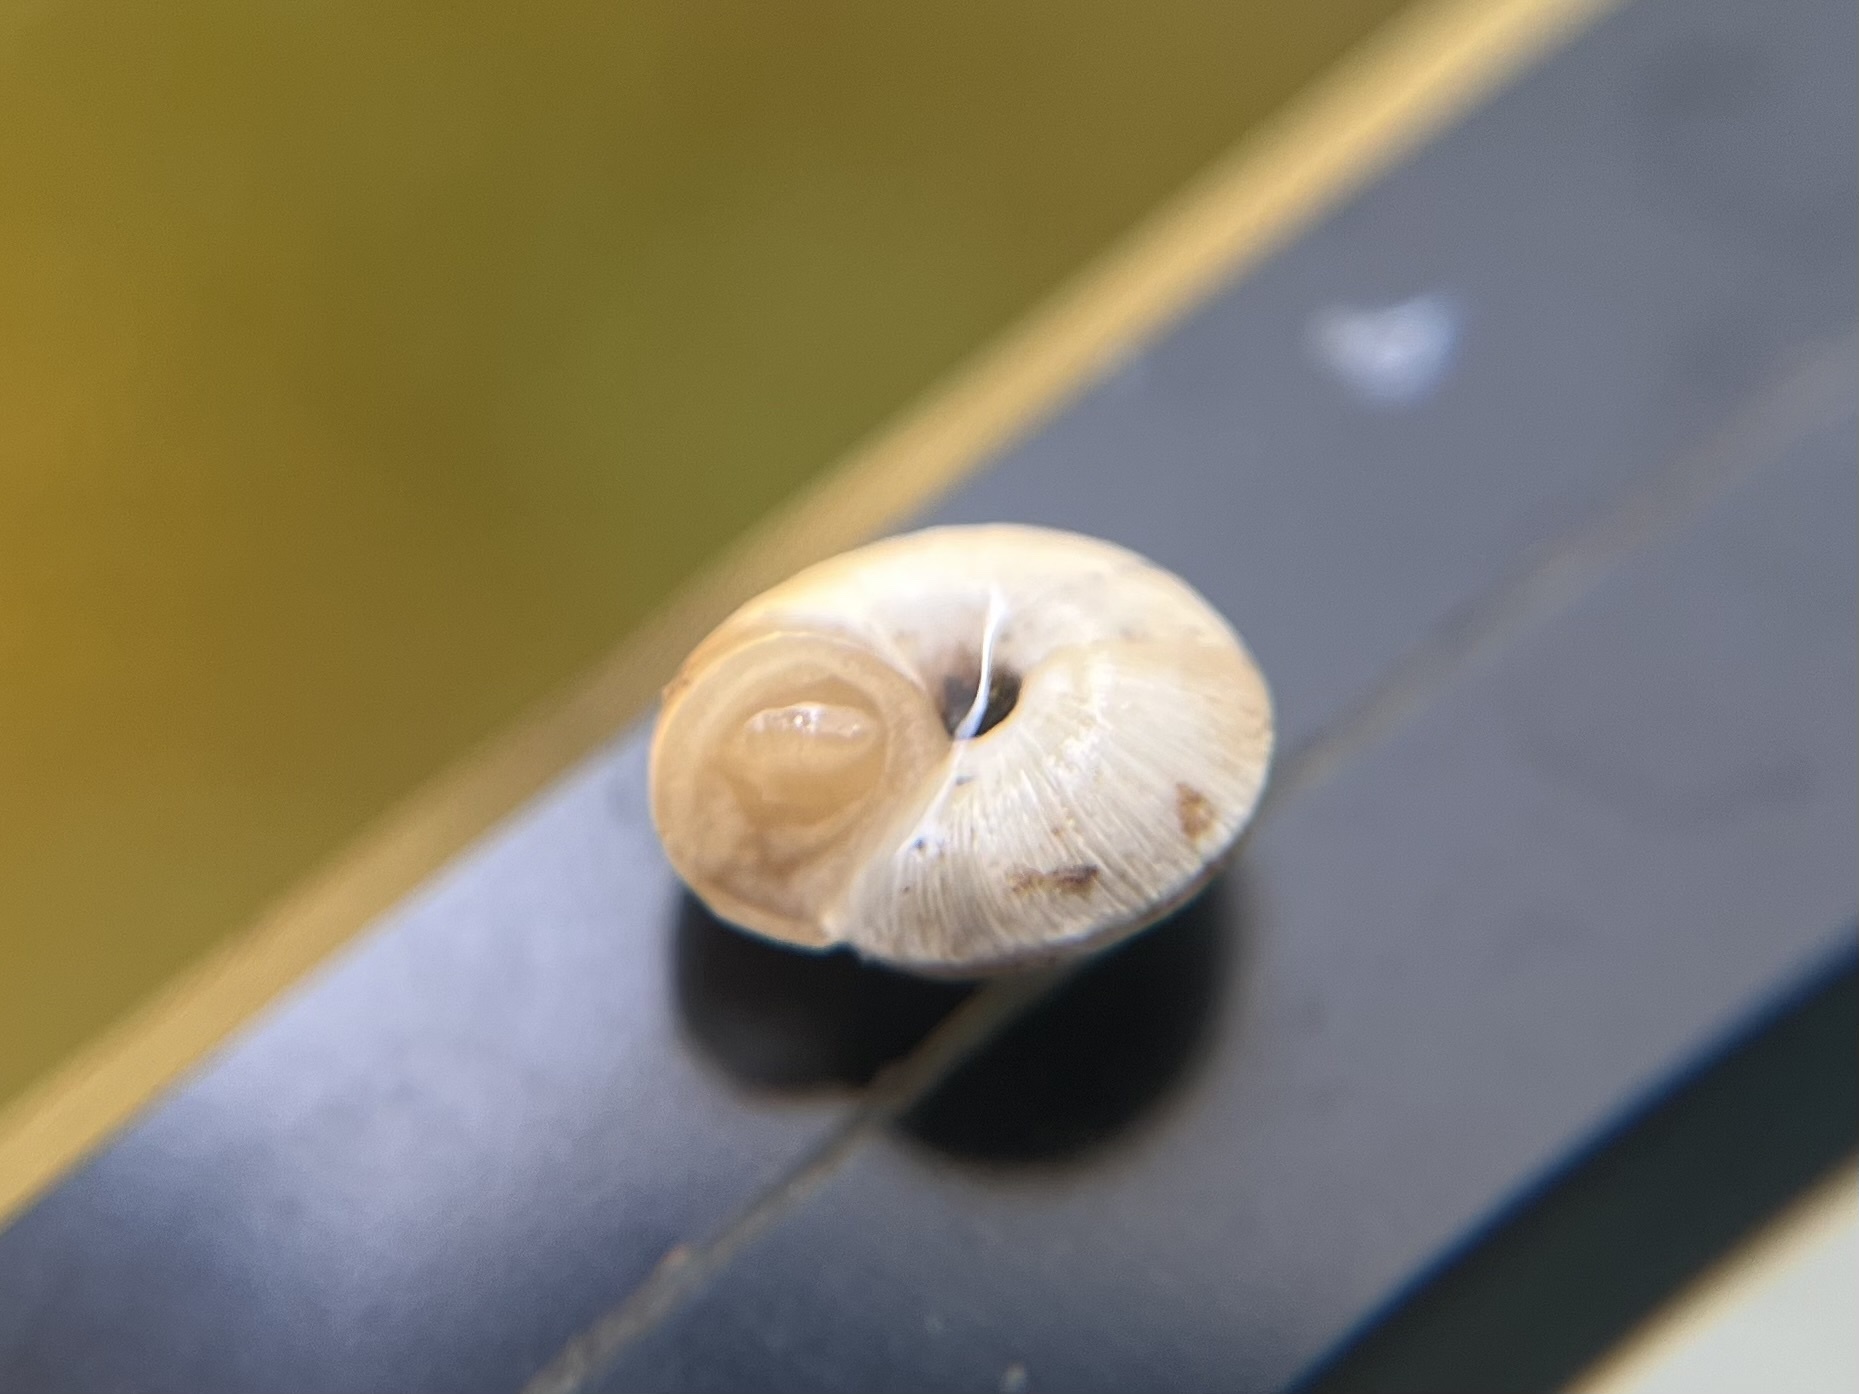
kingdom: Animalia
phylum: Mollusca
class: Gastropoda
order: Stylommatophora
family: Geomitridae
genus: Cernuella
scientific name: Cernuella virgata
